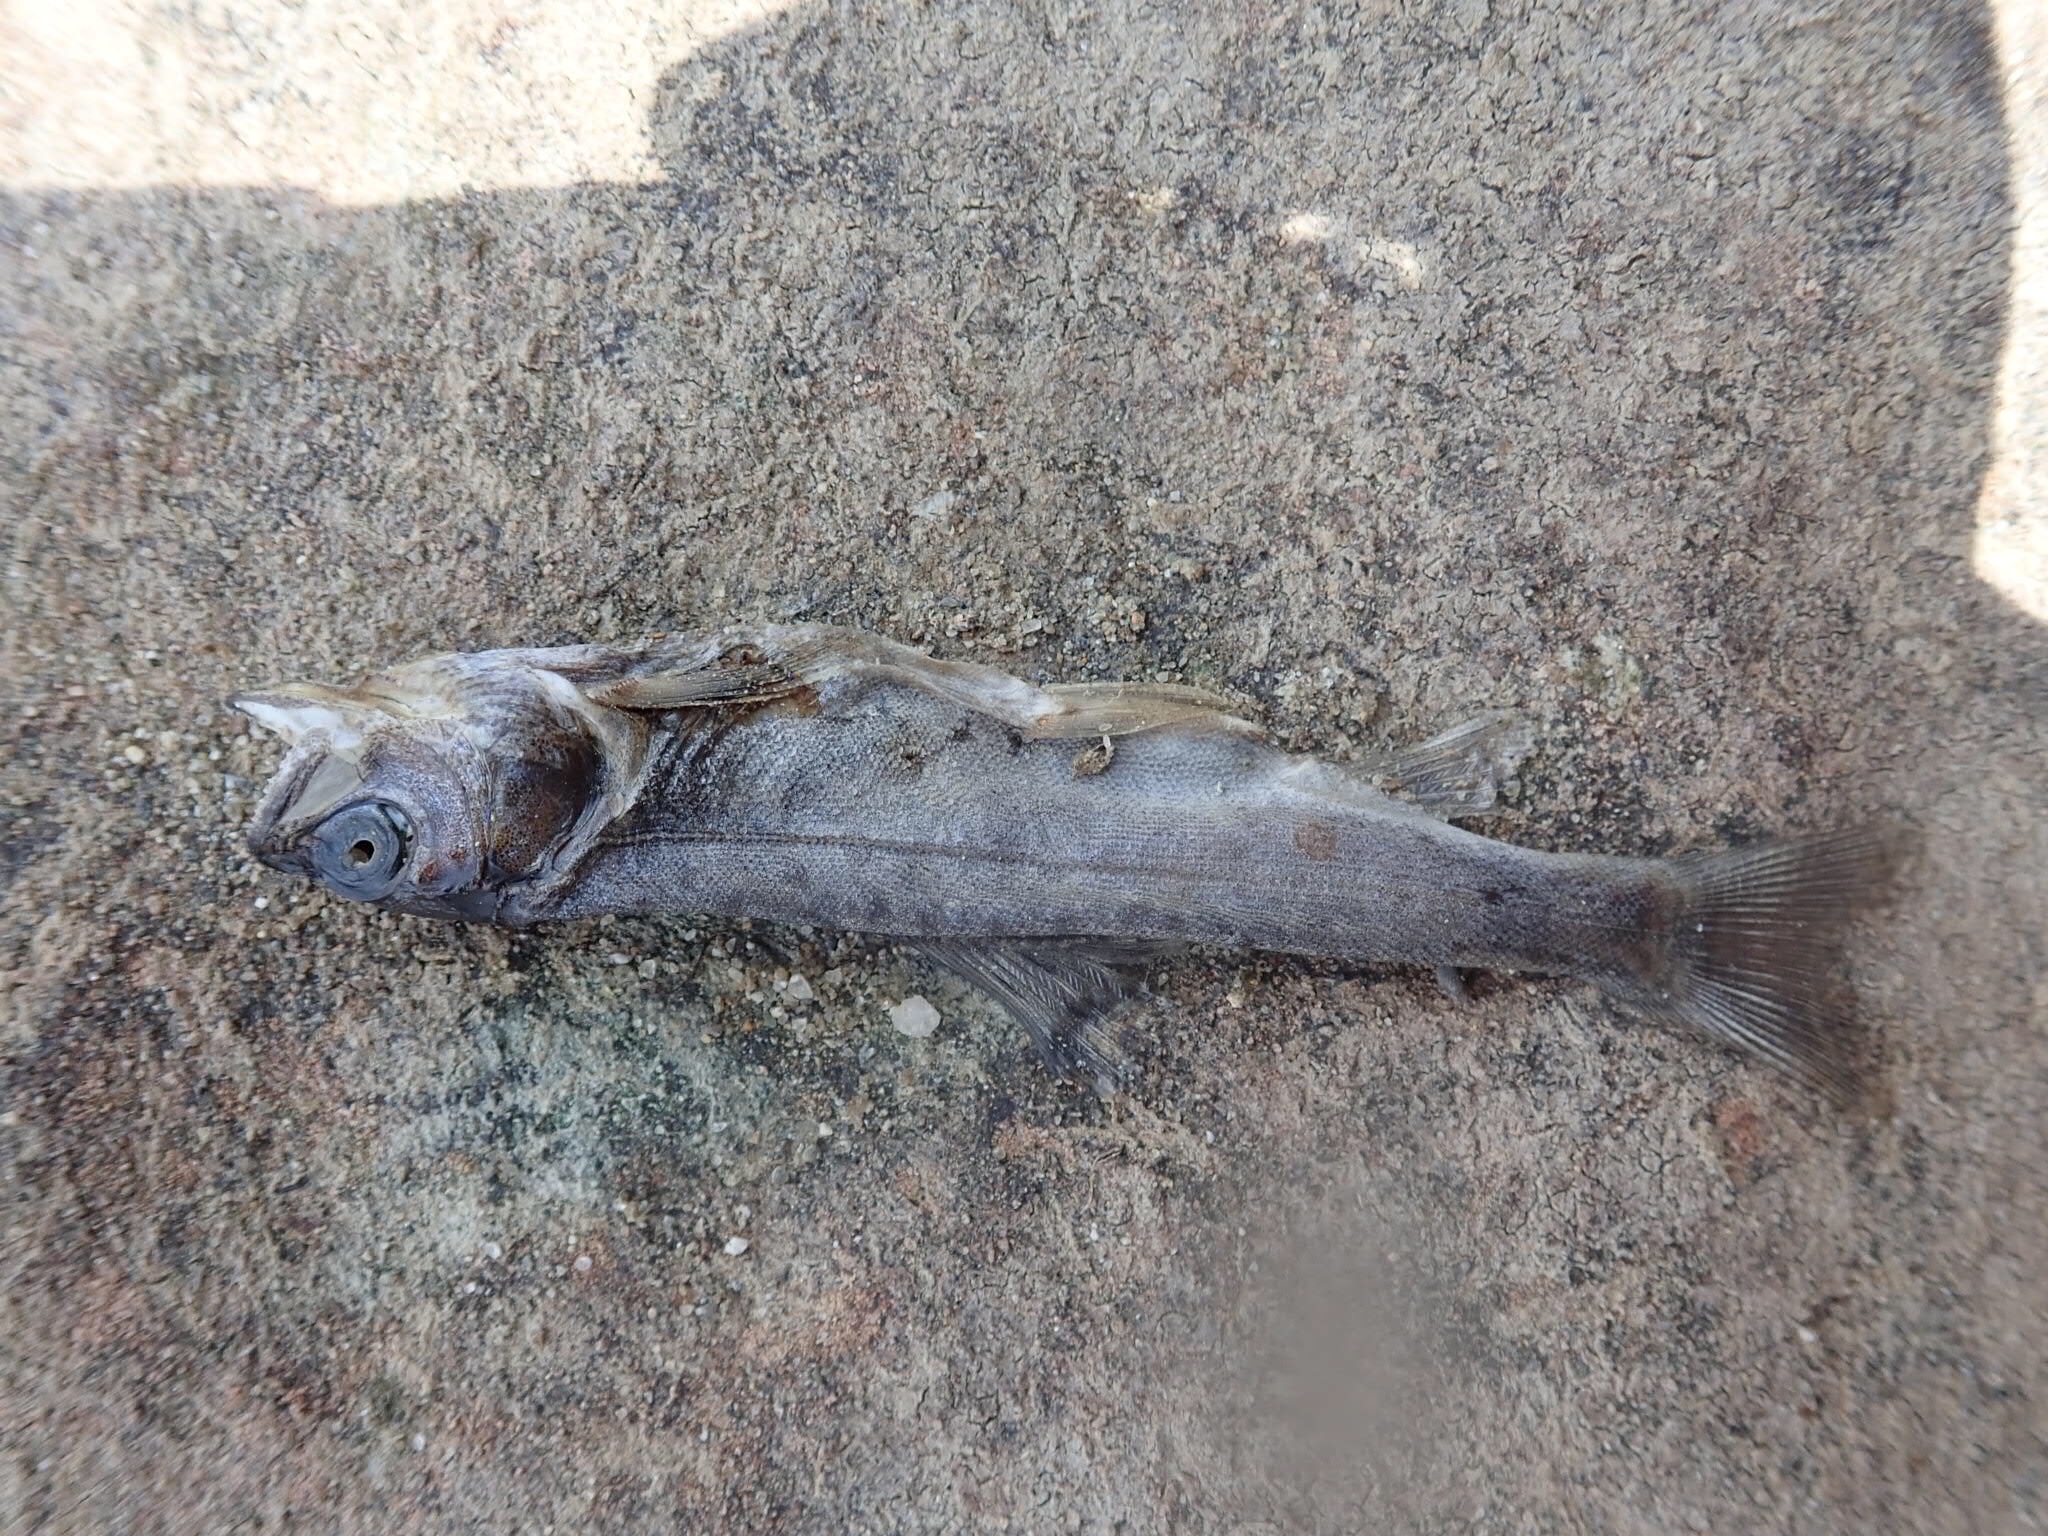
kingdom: Animalia
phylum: Chordata
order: Salmoniformes
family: Salmonidae
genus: Salmo
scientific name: Salmo trutta
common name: Brown trout
